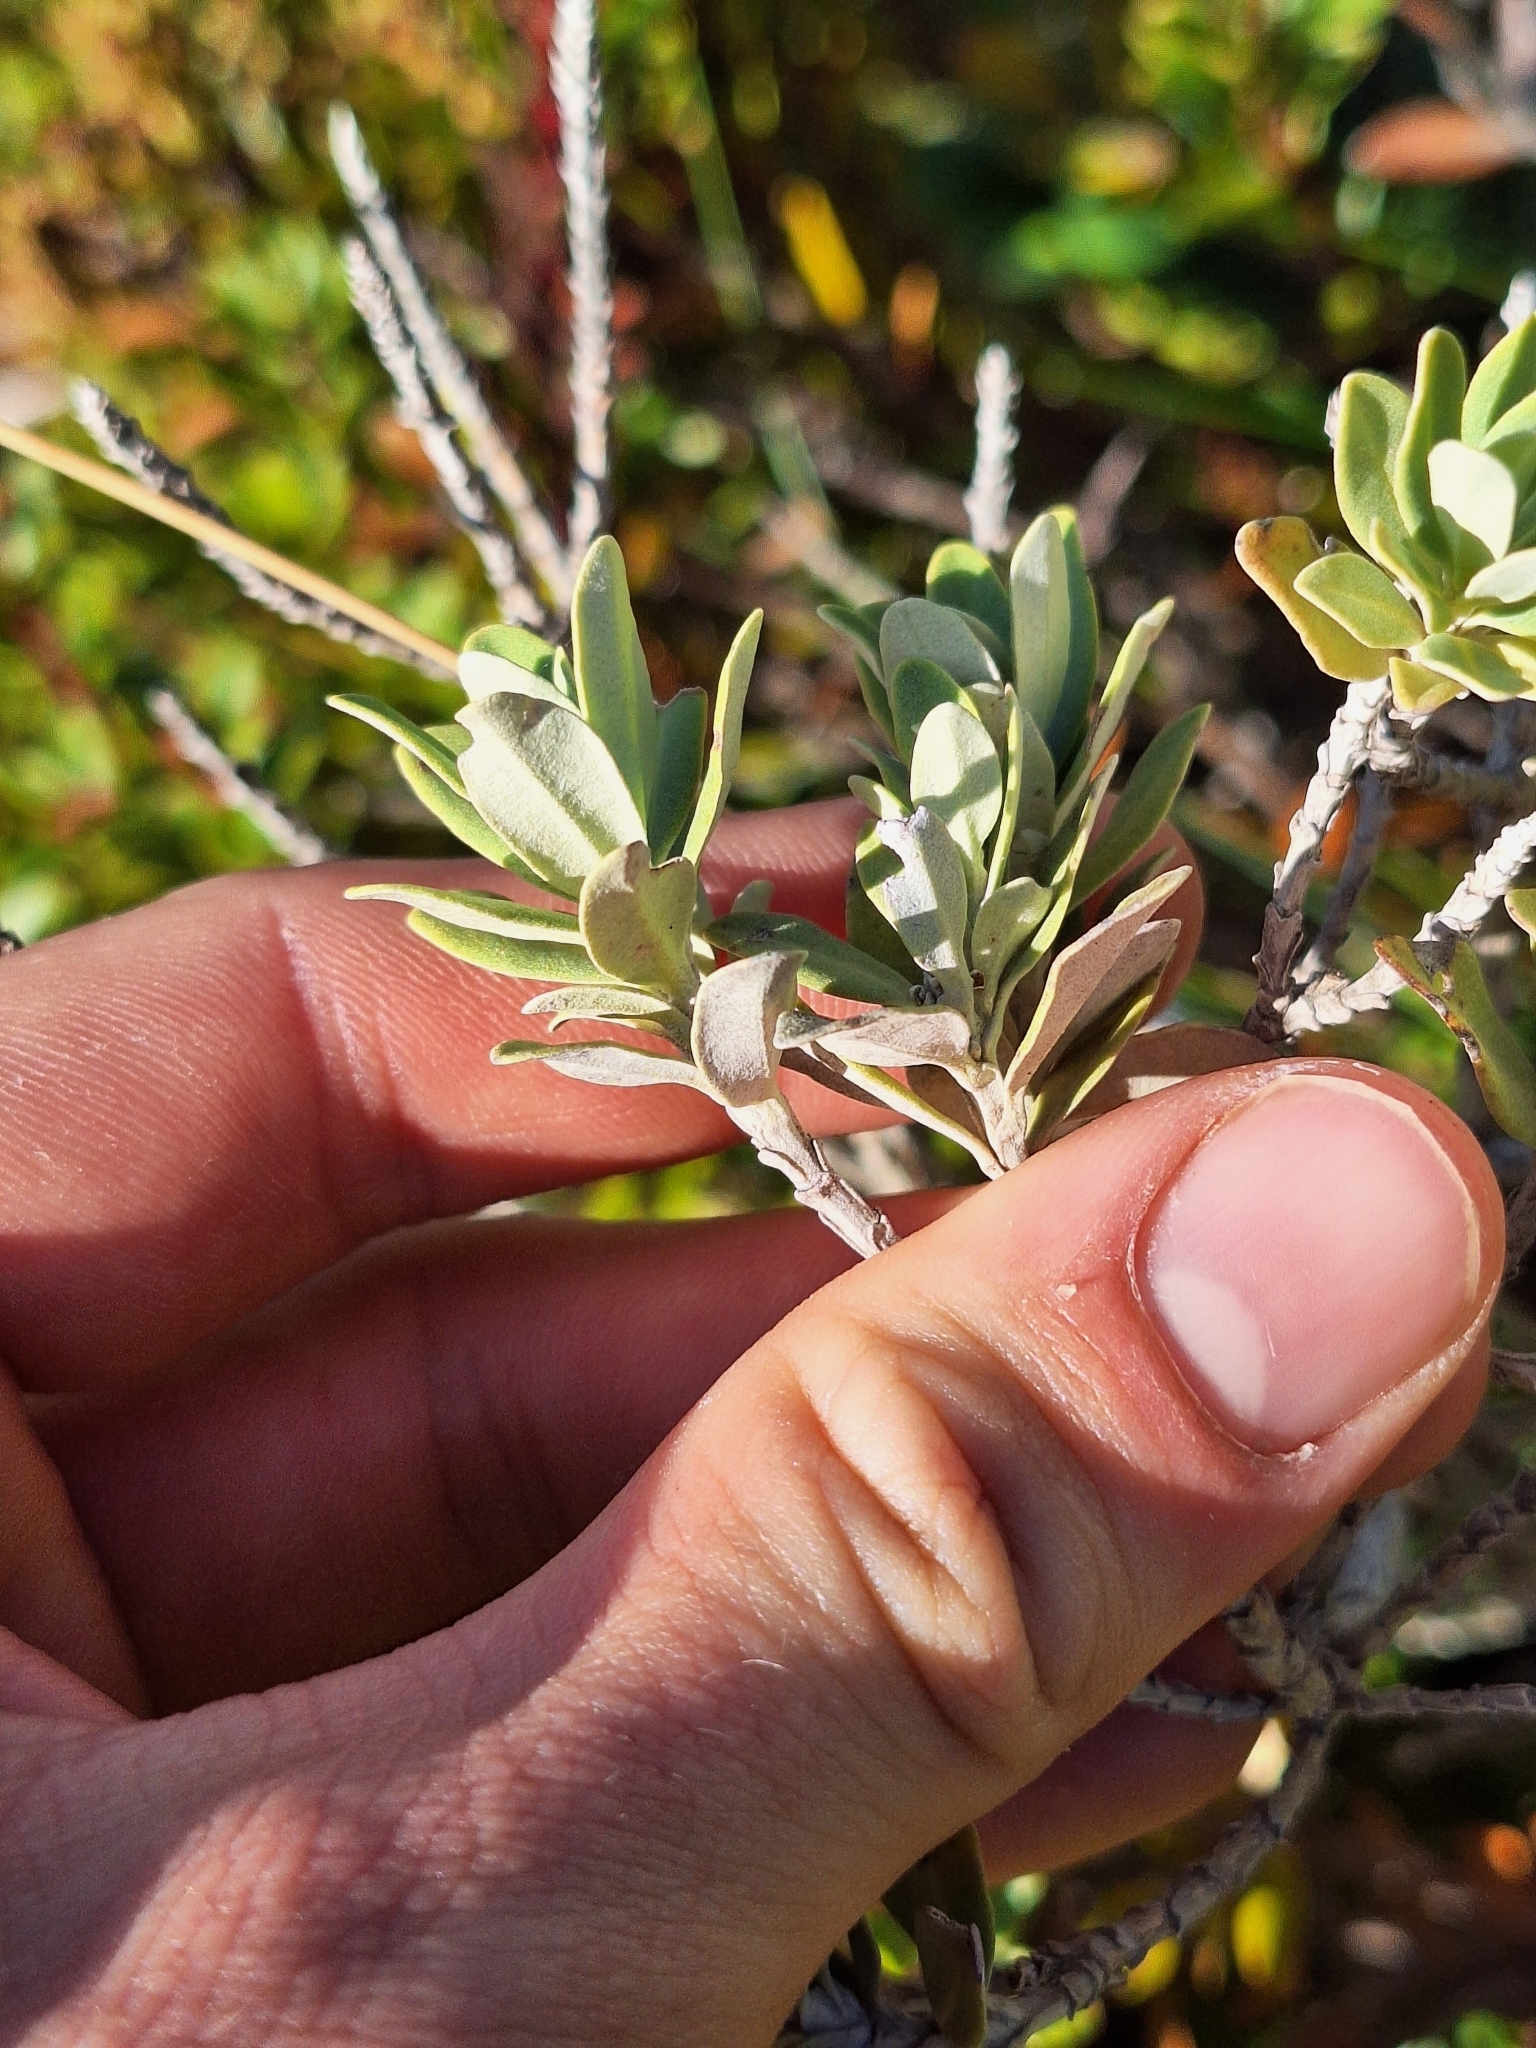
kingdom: Plantae
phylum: Tracheophyta
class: Magnoliopsida
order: Asterales
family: Asteraceae
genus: Olearia
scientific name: Olearia moschata
